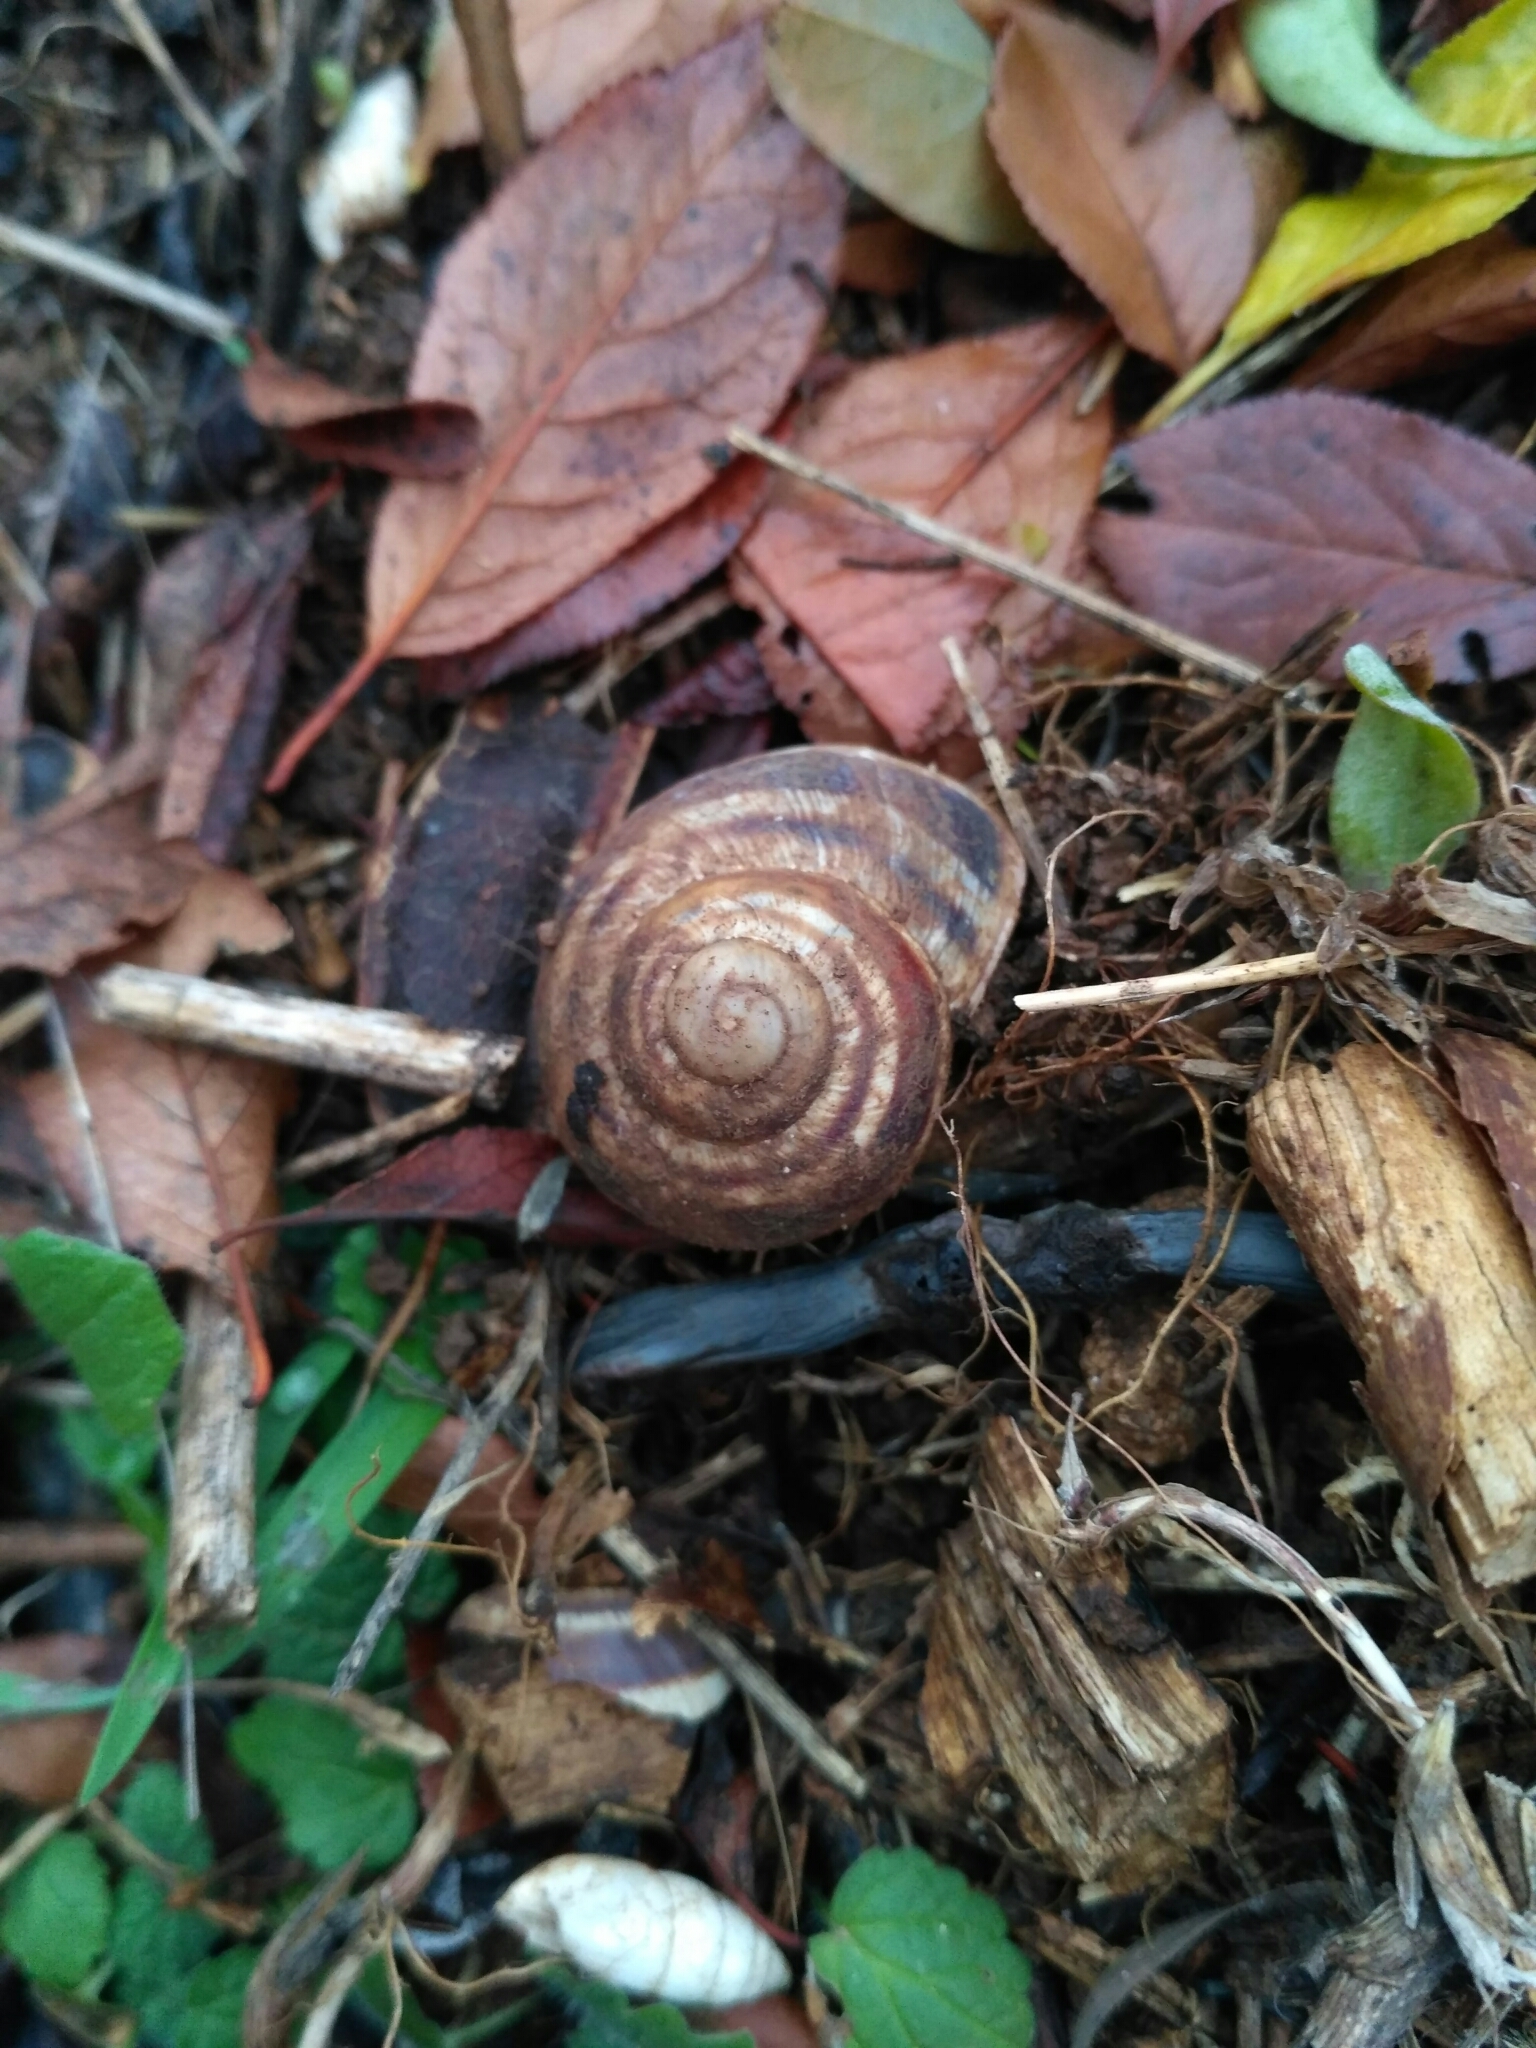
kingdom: Animalia
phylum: Mollusca
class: Gastropoda
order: Stylommatophora
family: Helicidae
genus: Helix
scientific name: Helix albescens
